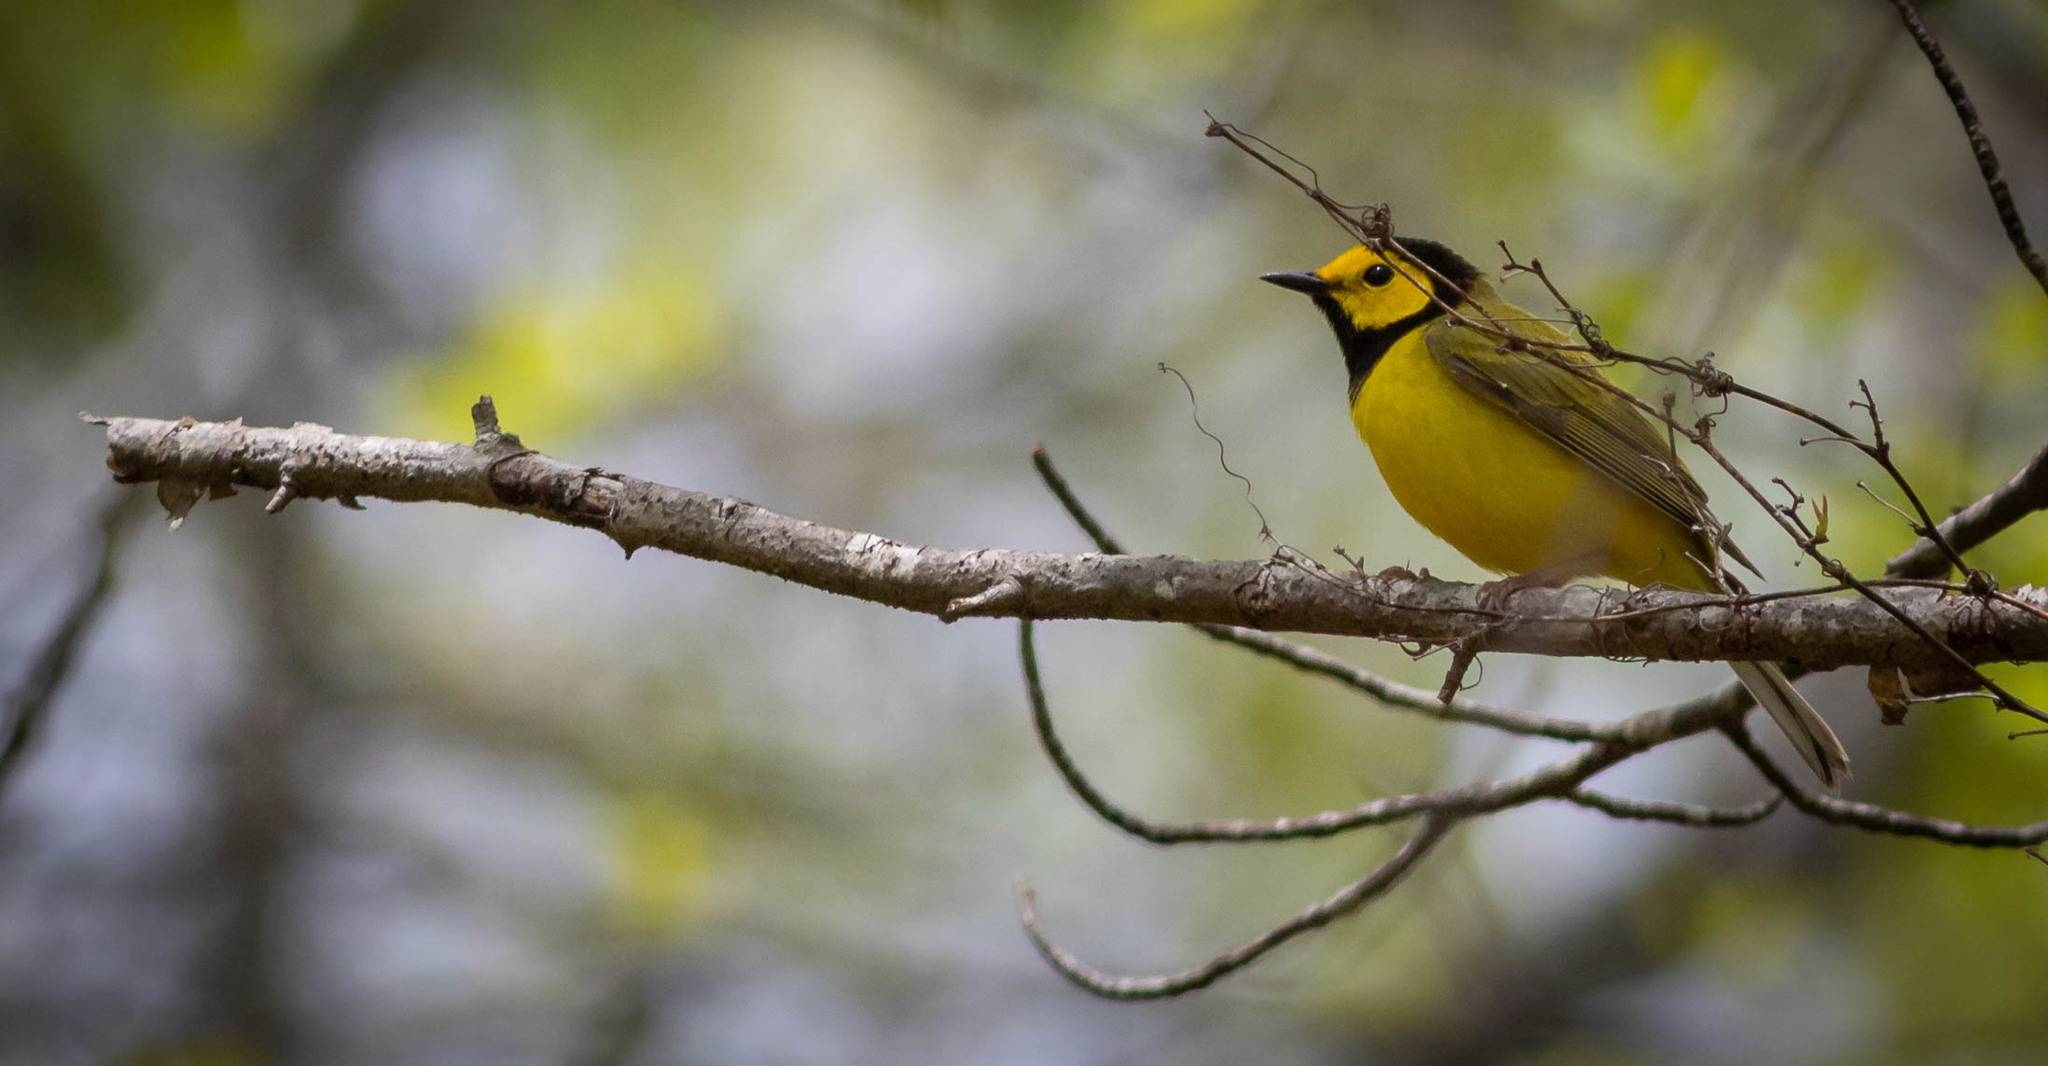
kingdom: Animalia
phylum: Chordata
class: Aves
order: Passeriformes
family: Parulidae
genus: Setophaga
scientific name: Setophaga citrina
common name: Hooded warbler
